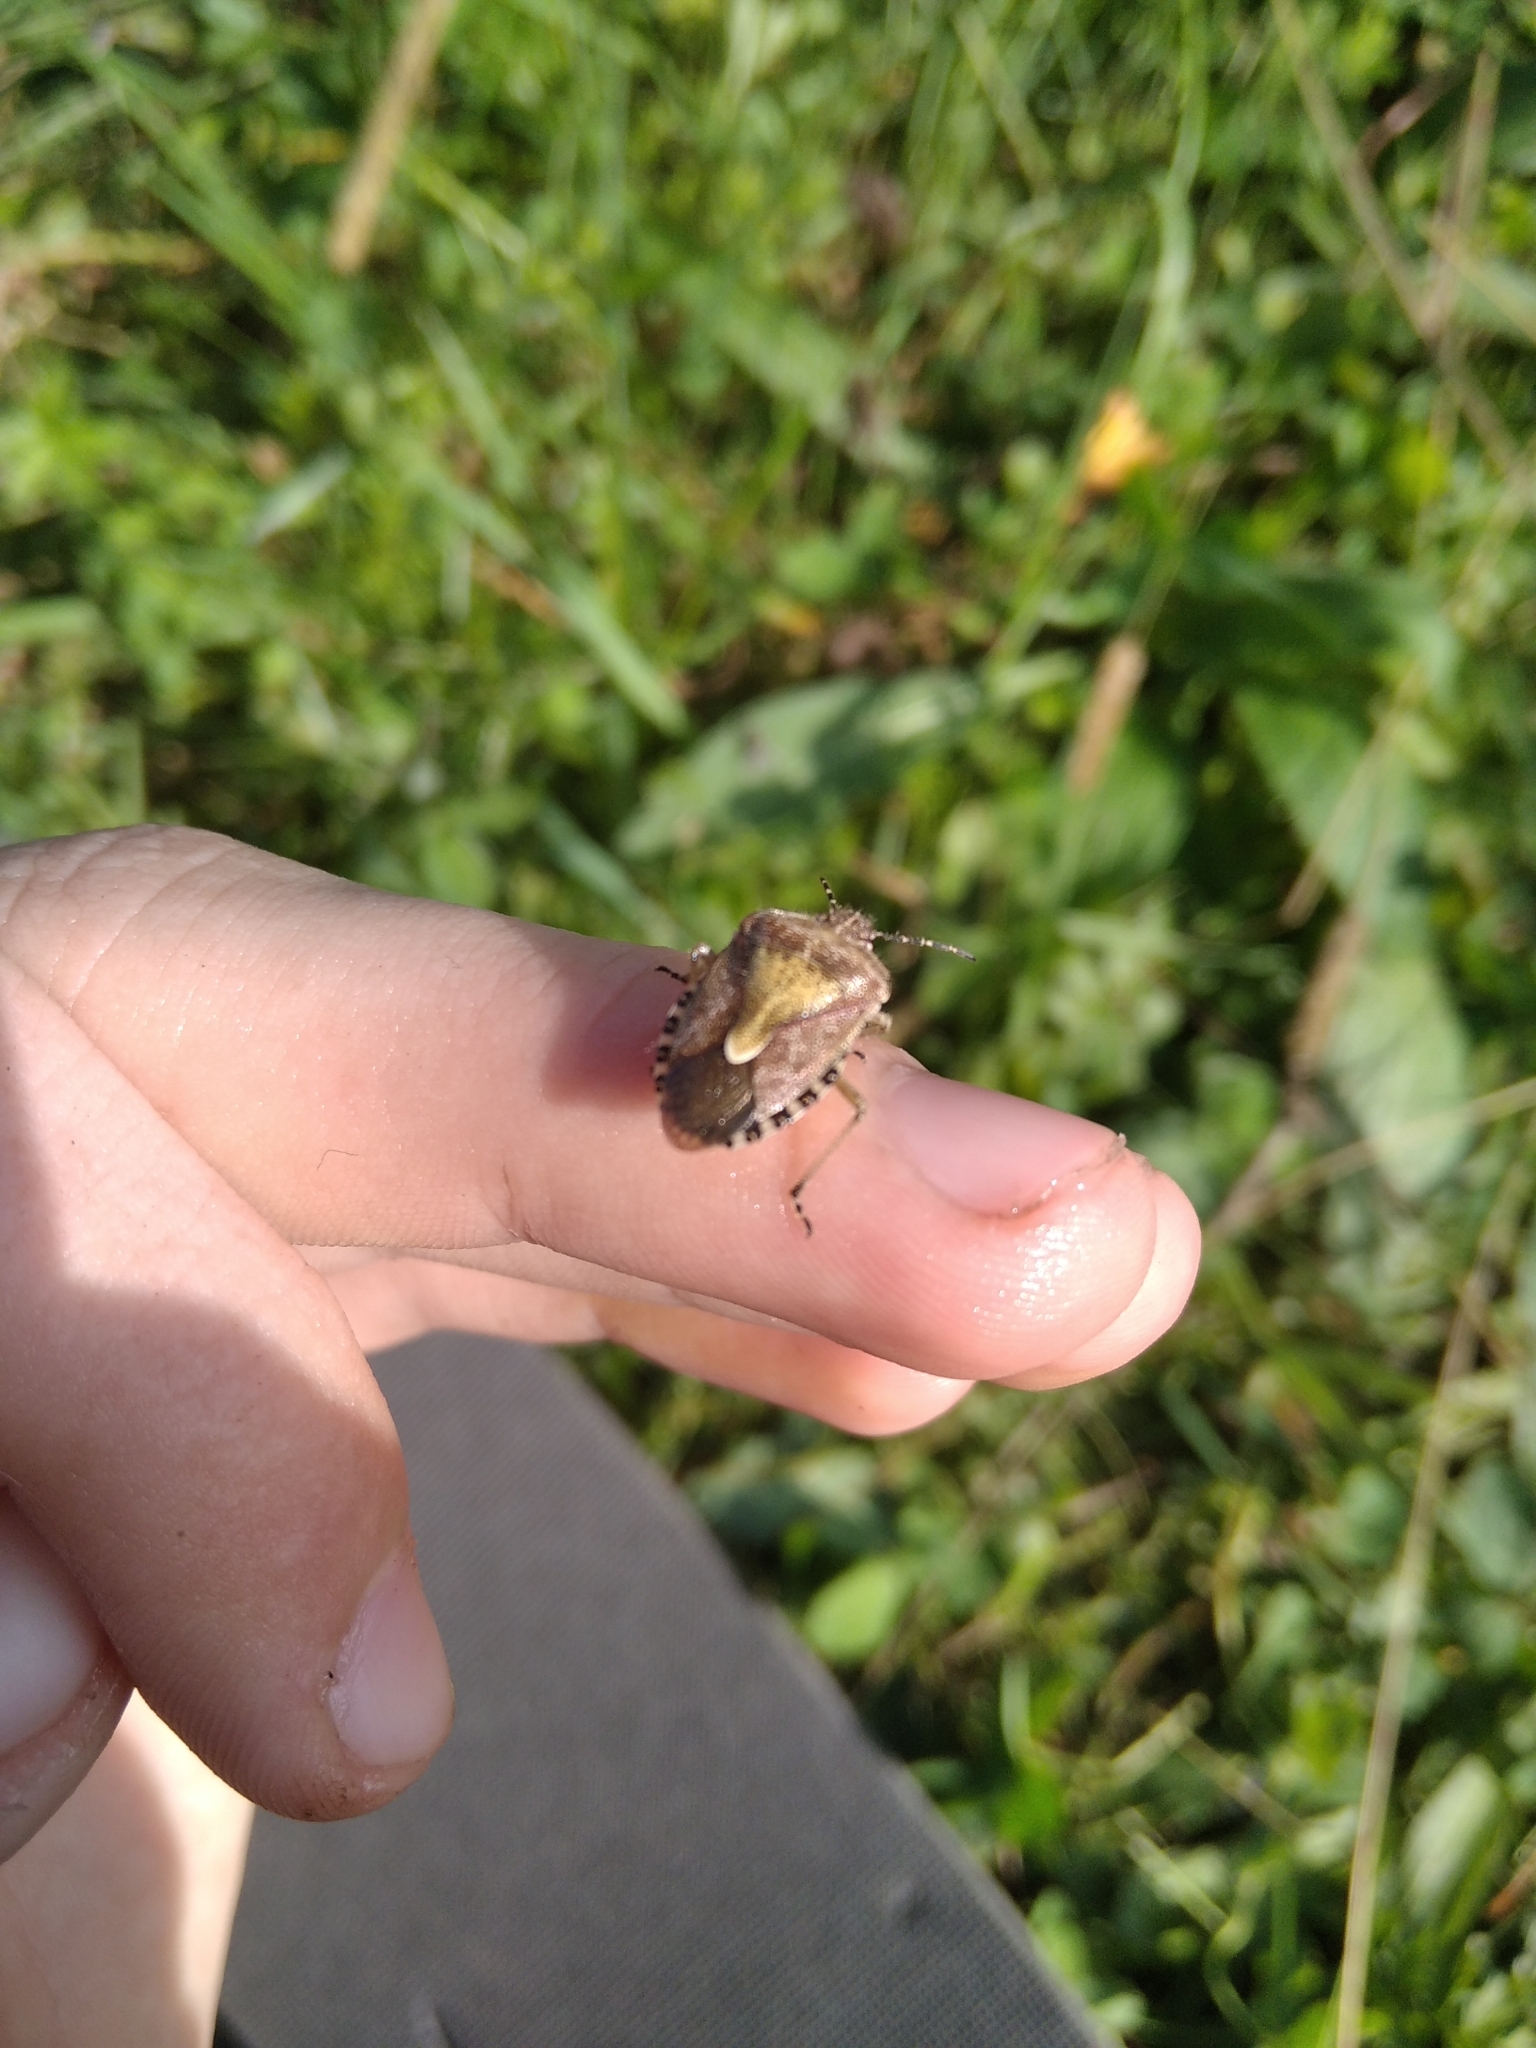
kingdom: Animalia
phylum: Arthropoda
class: Insecta
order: Hemiptera
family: Pentatomidae
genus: Dolycoris
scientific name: Dolycoris baccarum
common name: Sloe bug
